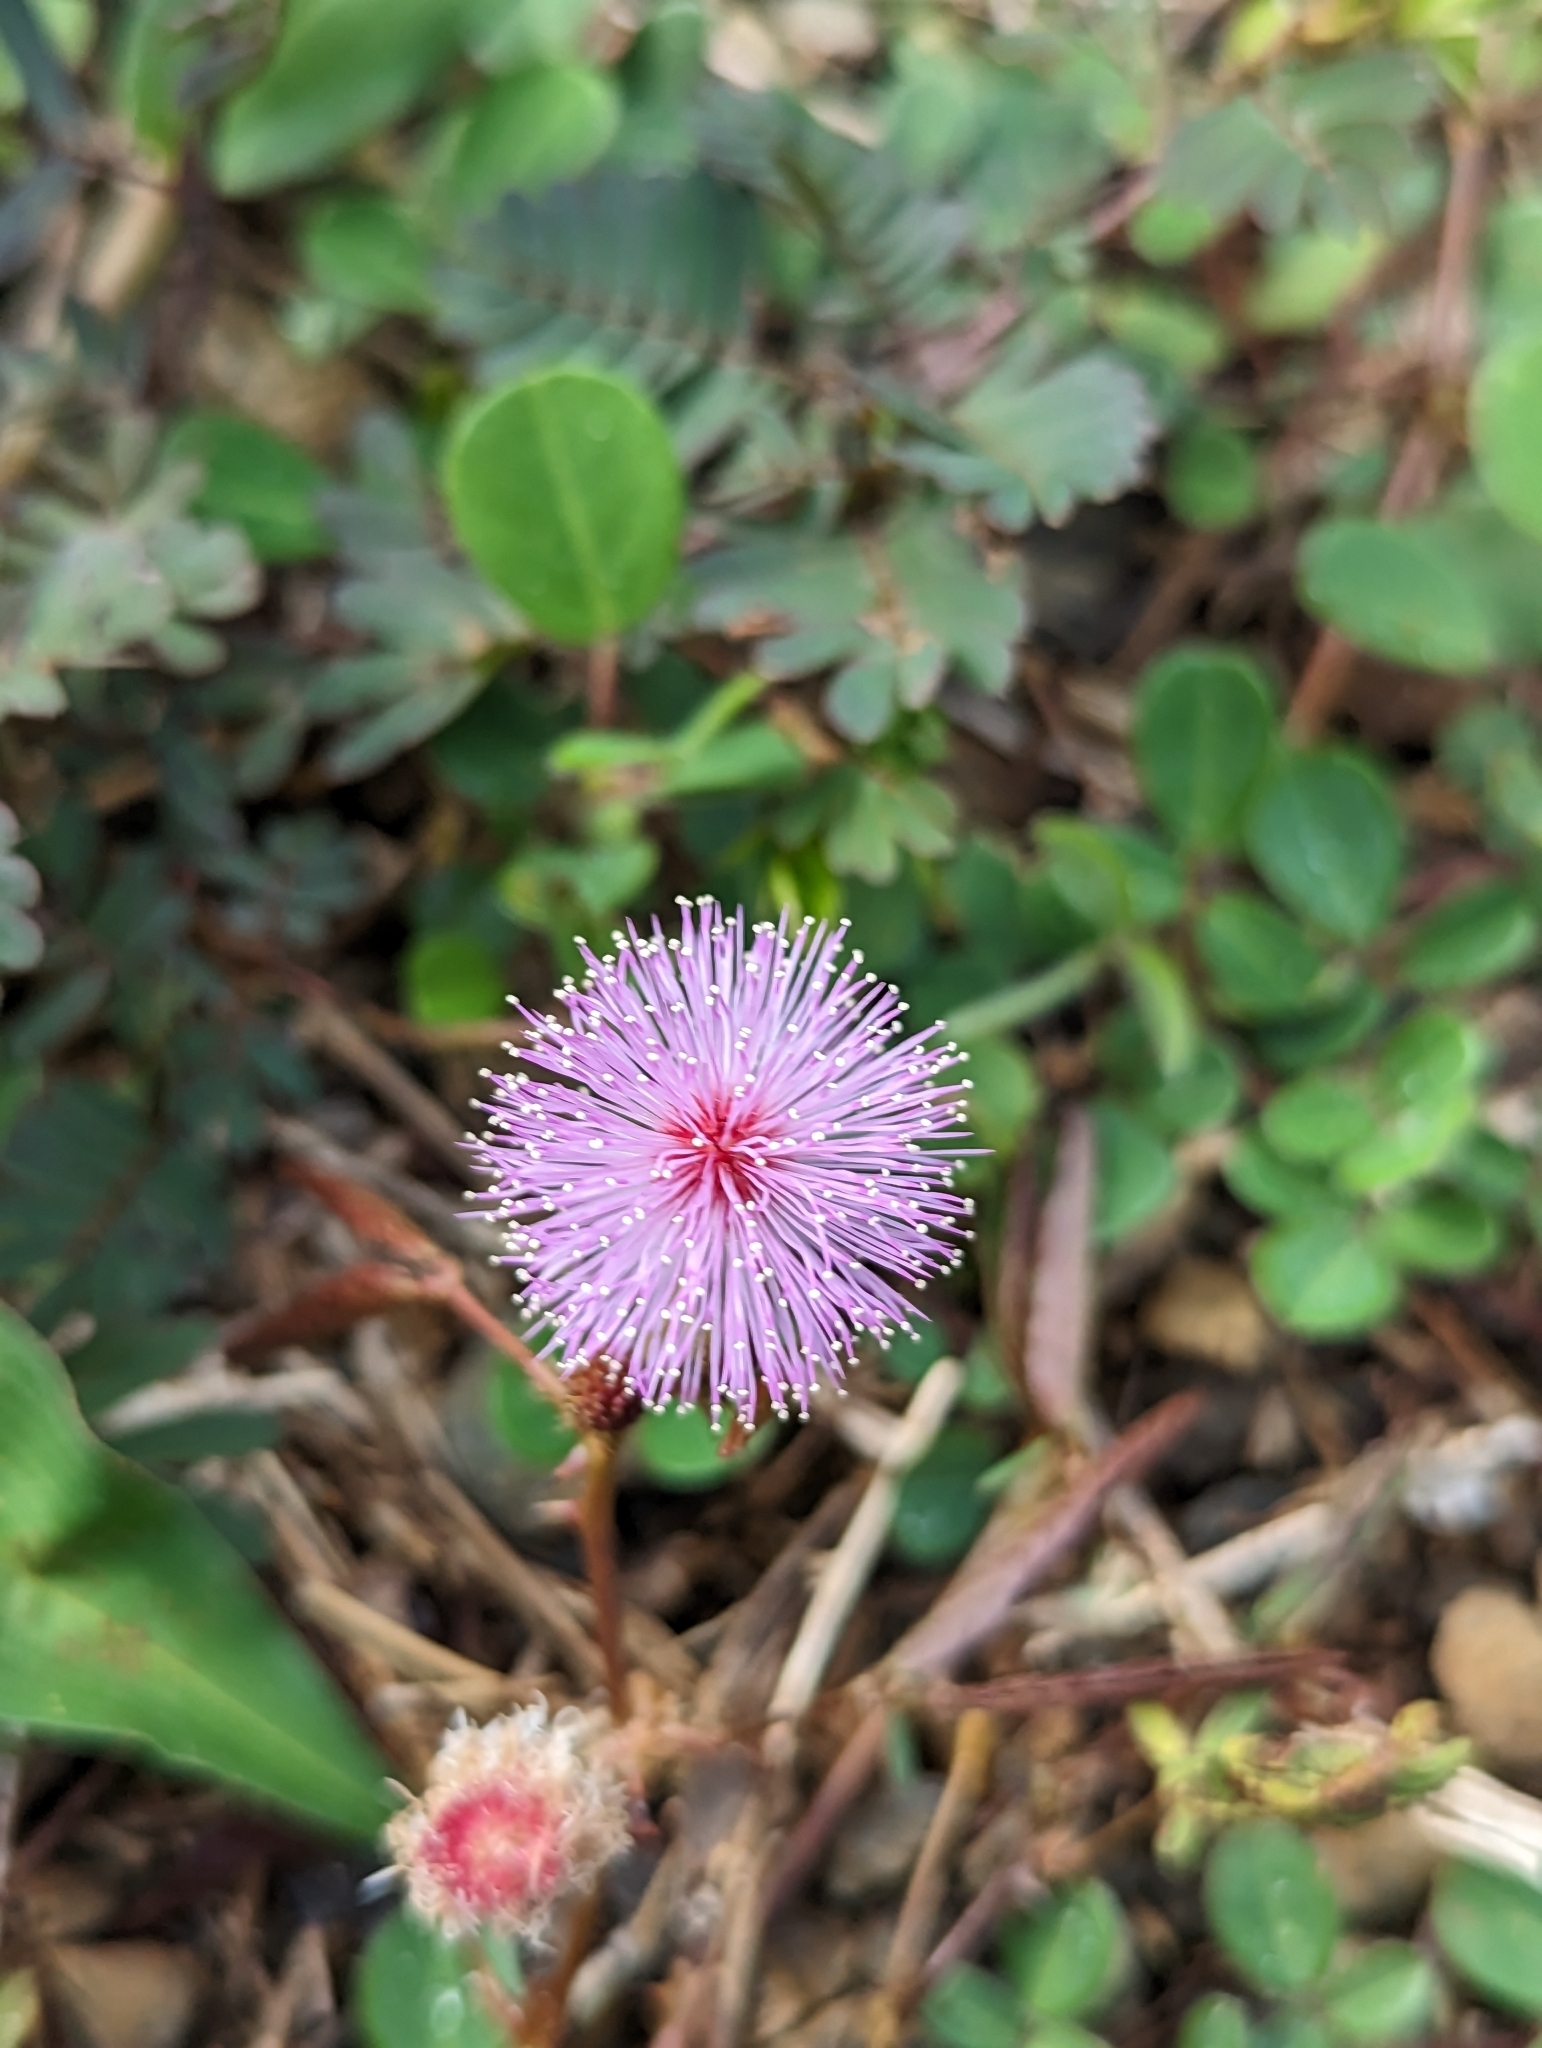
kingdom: Plantae
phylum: Tracheophyta
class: Magnoliopsida
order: Fabales
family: Fabaceae
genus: Mimosa
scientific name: Mimosa pudica
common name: Sensitive plant
